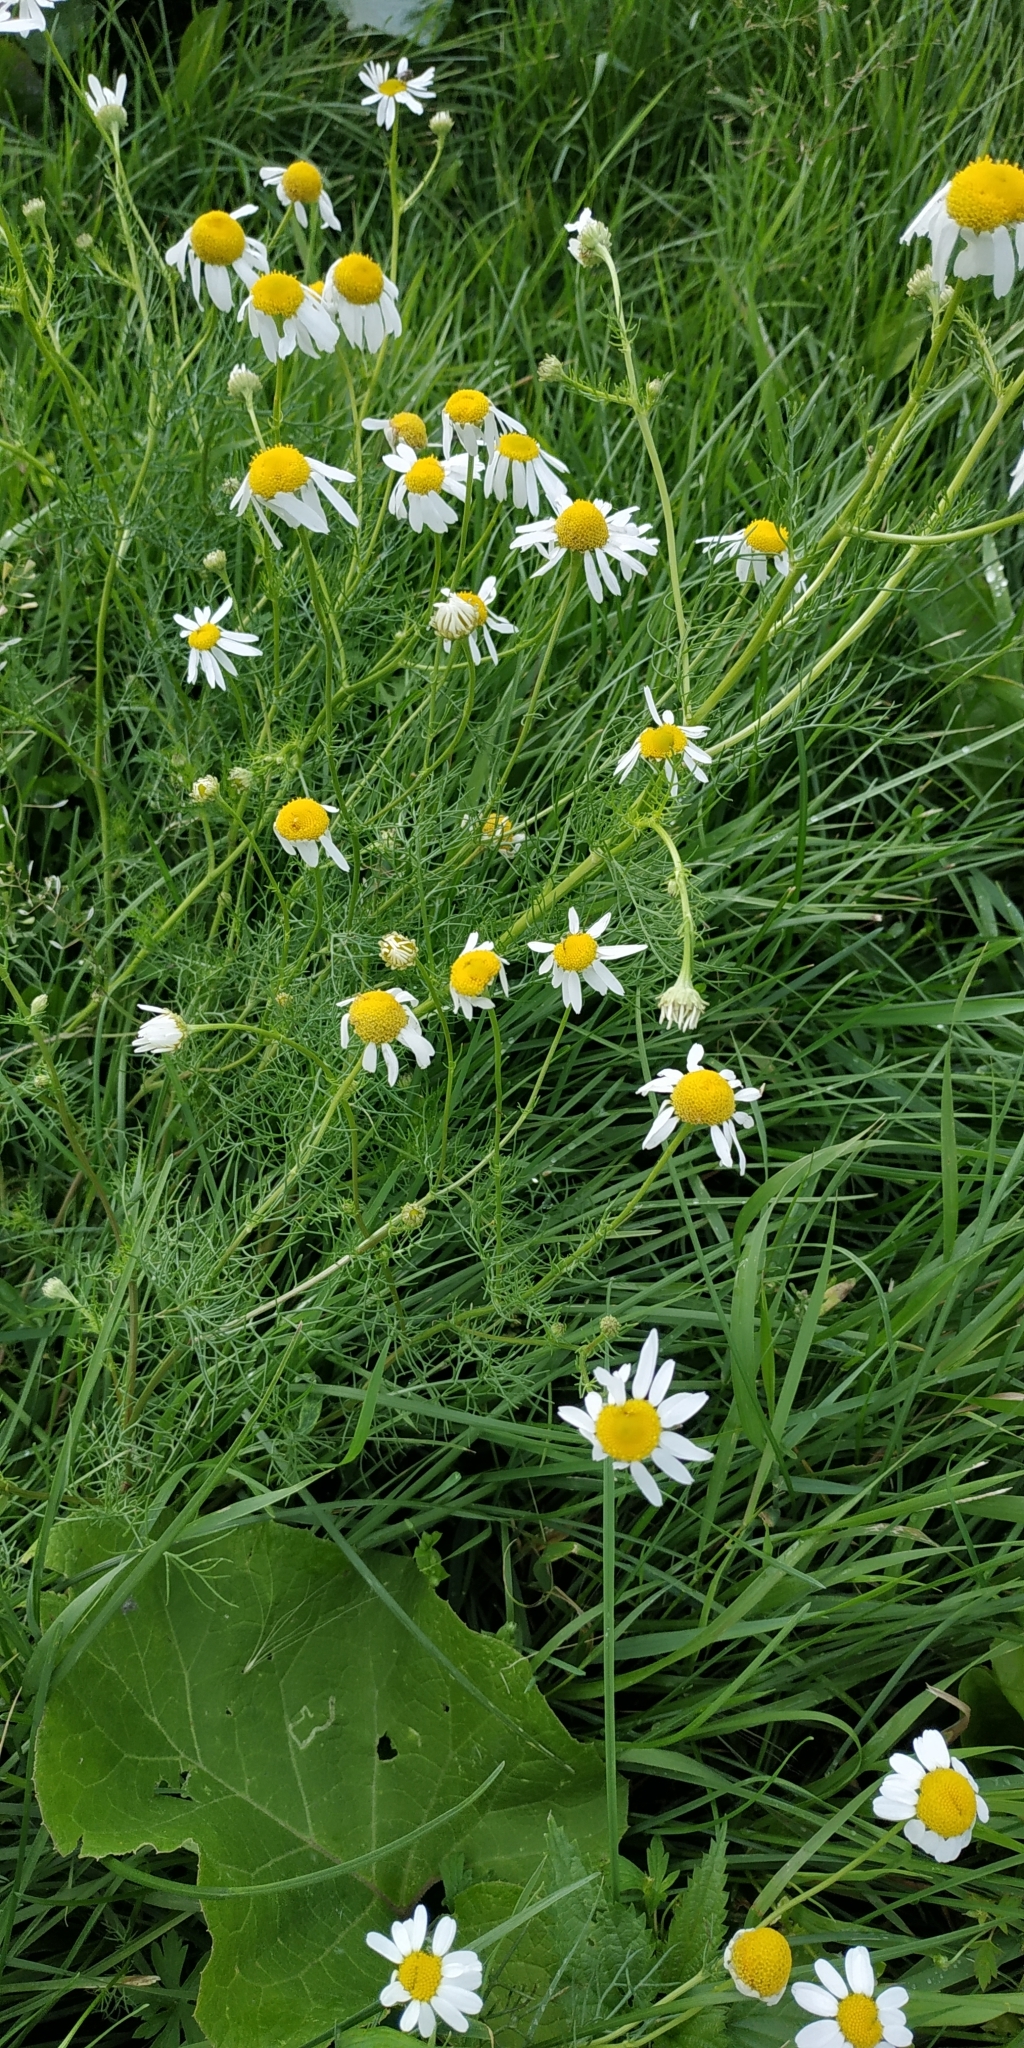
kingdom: Plantae
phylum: Tracheophyta
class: Magnoliopsida
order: Asterales
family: Asteraceae
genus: Tripleurospermum
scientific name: Tripleurospermum inodorum
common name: Scentless mayweed
